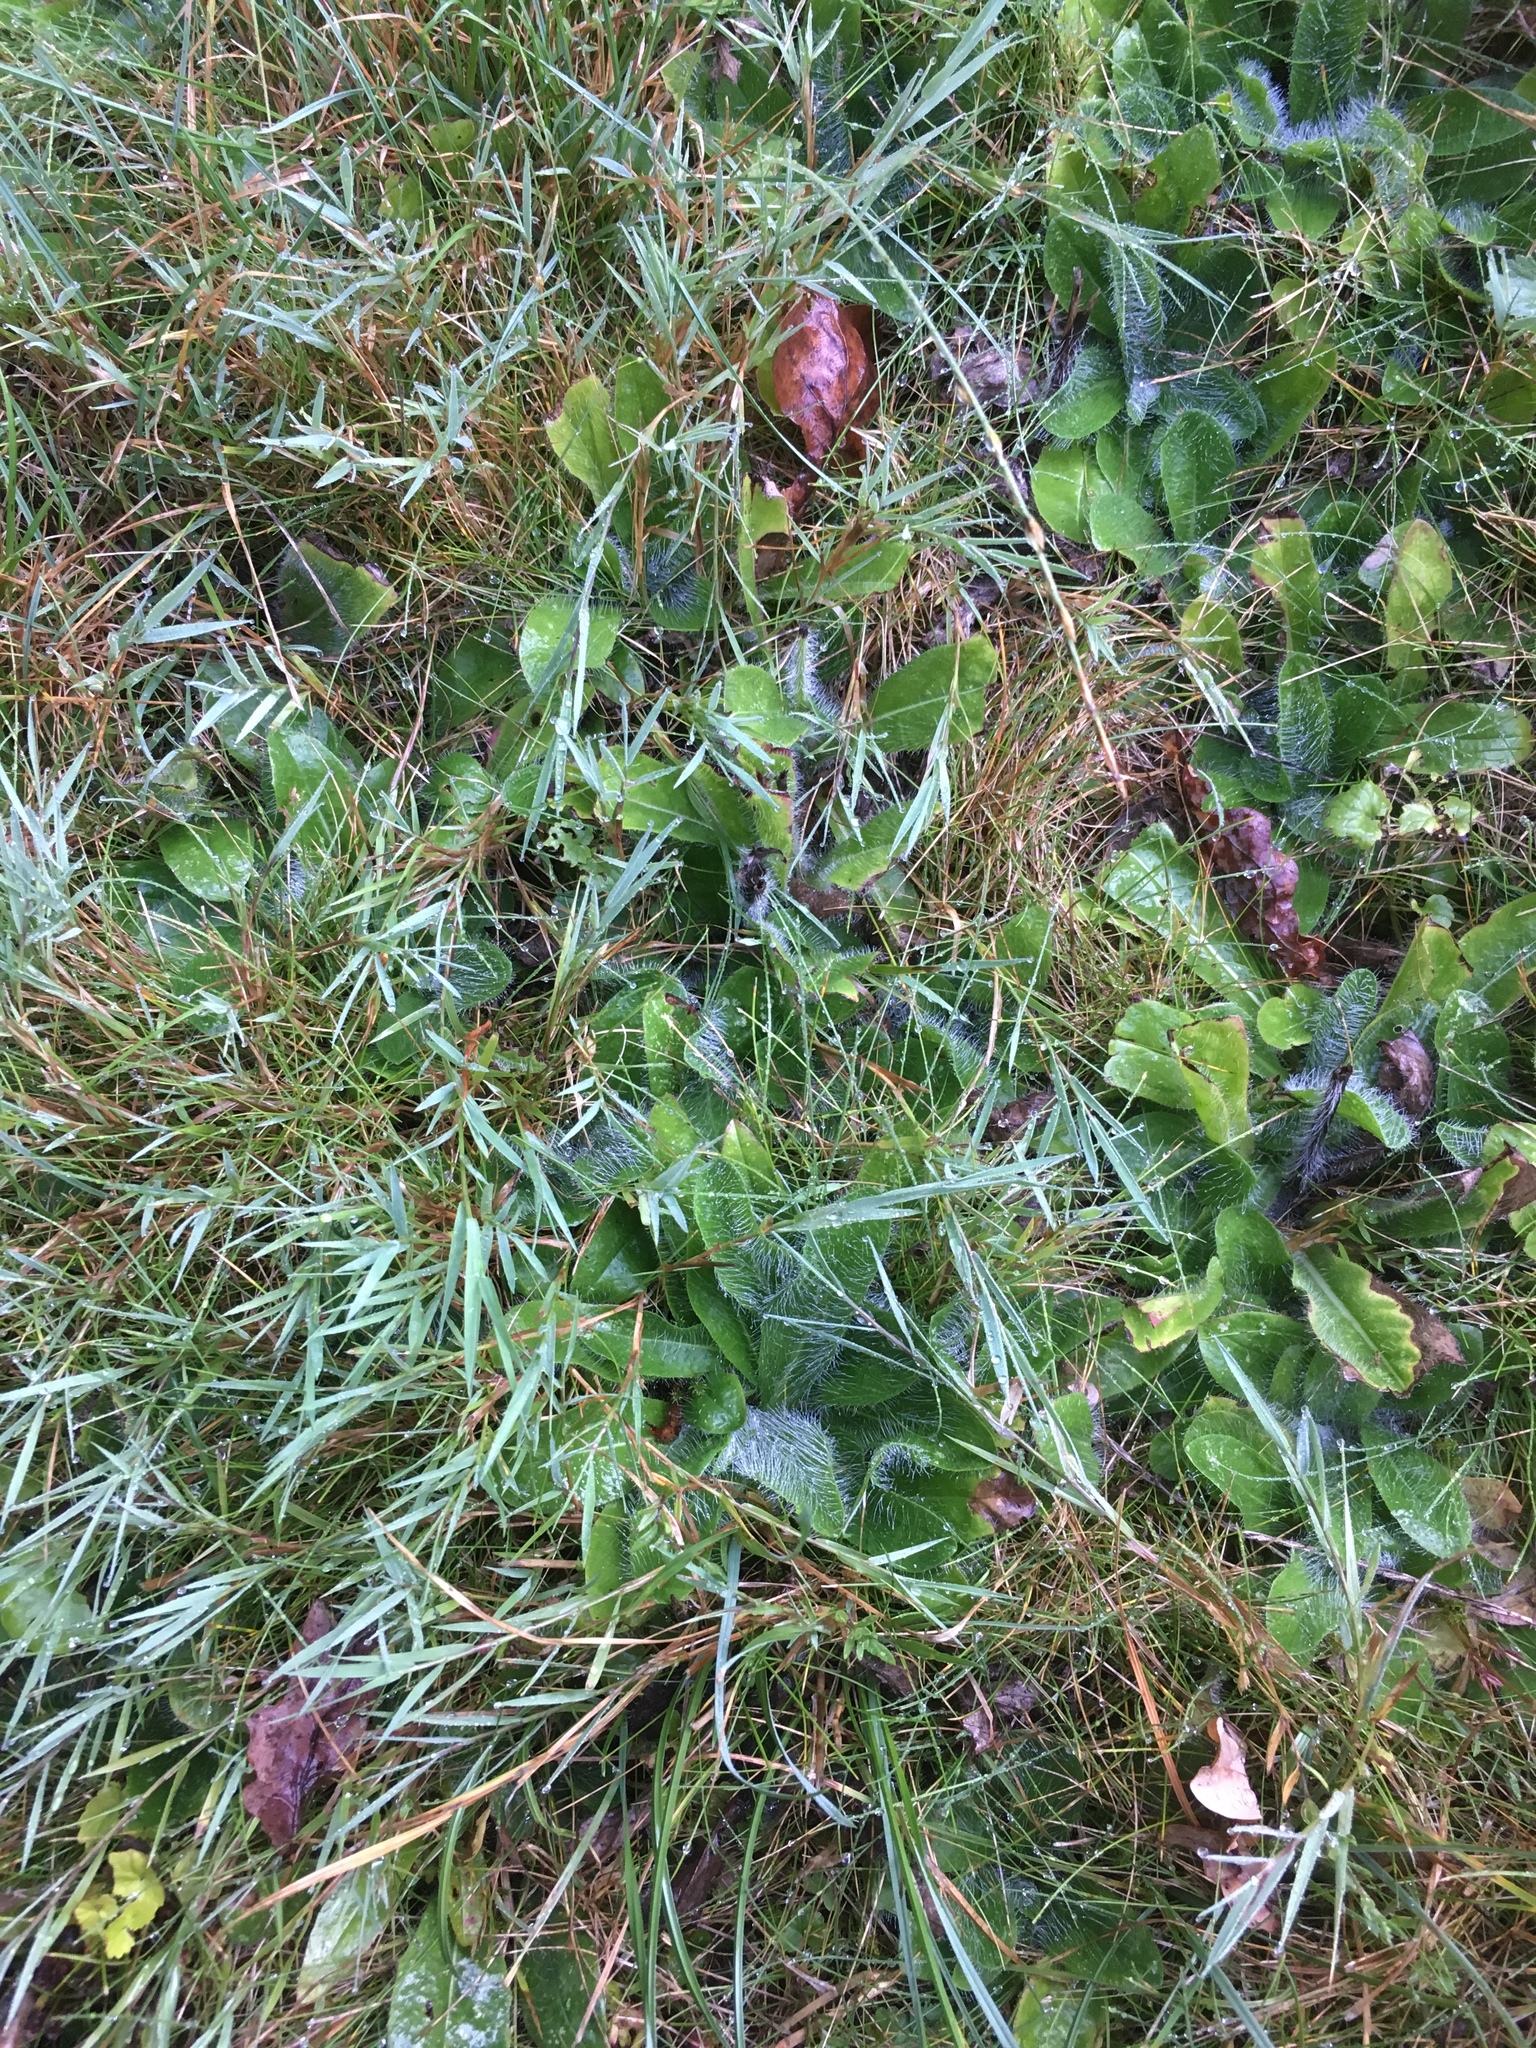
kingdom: Plantae
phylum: Tracheophyta
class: Magnoliopsida
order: Asterales
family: Asteraceae
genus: Pilosella
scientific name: Pilosella officinarum
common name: Mouse-ear hawkweed
